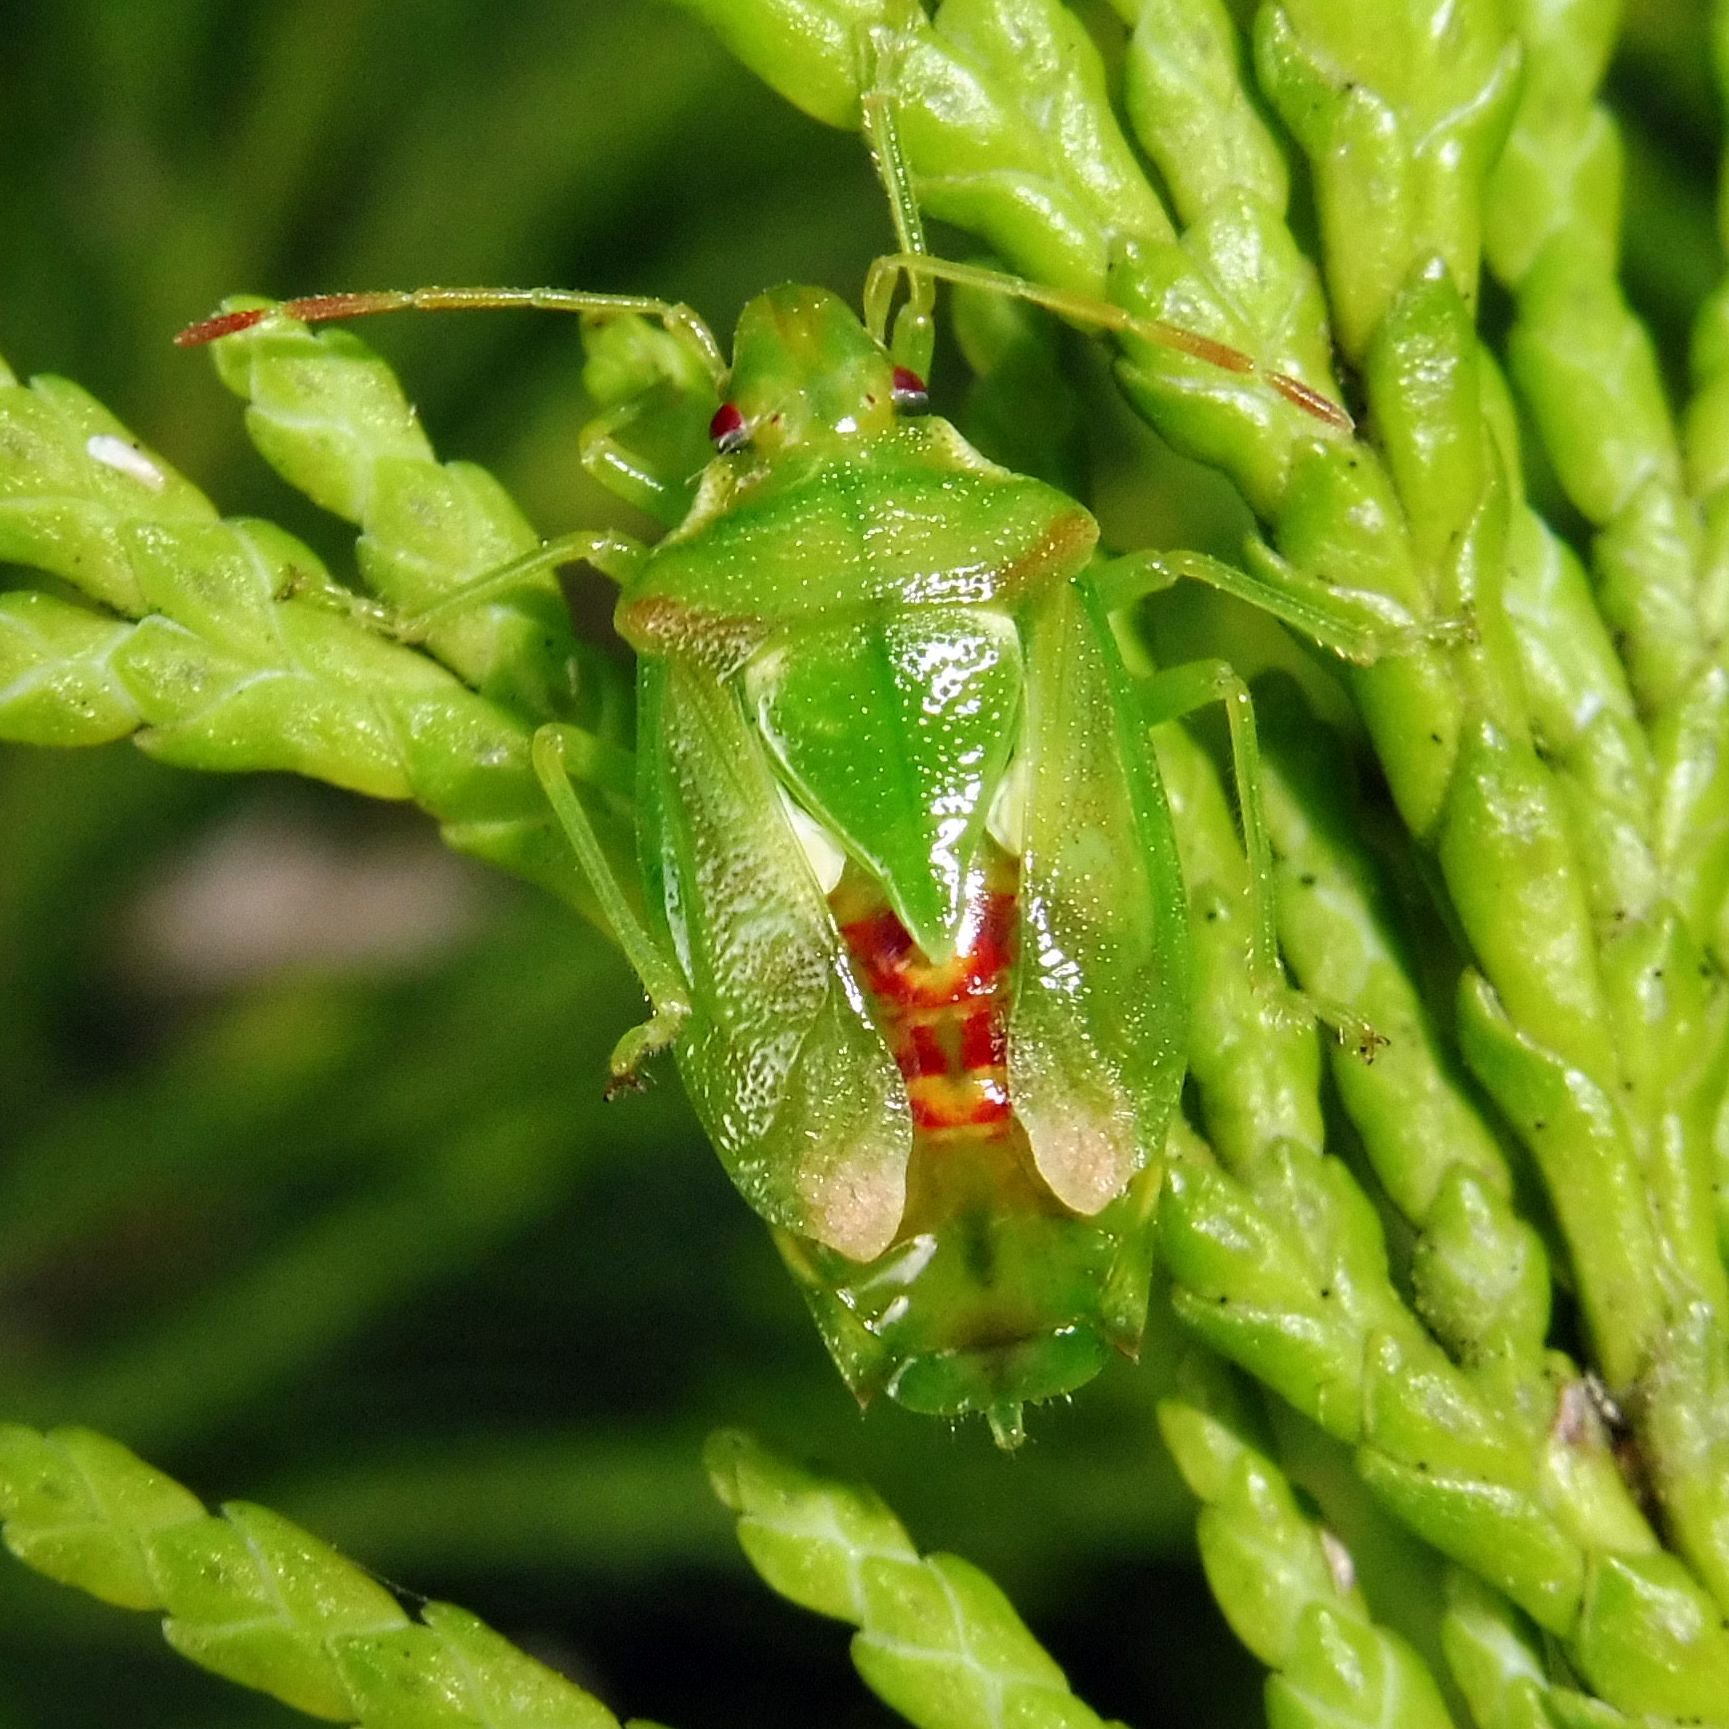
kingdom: Animalia
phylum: Arthropoda
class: Insecta
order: Hemiptera
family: Acanthosomatidae
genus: Cyphostethus
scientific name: Cyphostethus tristriatus
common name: Juniper shieldbug
